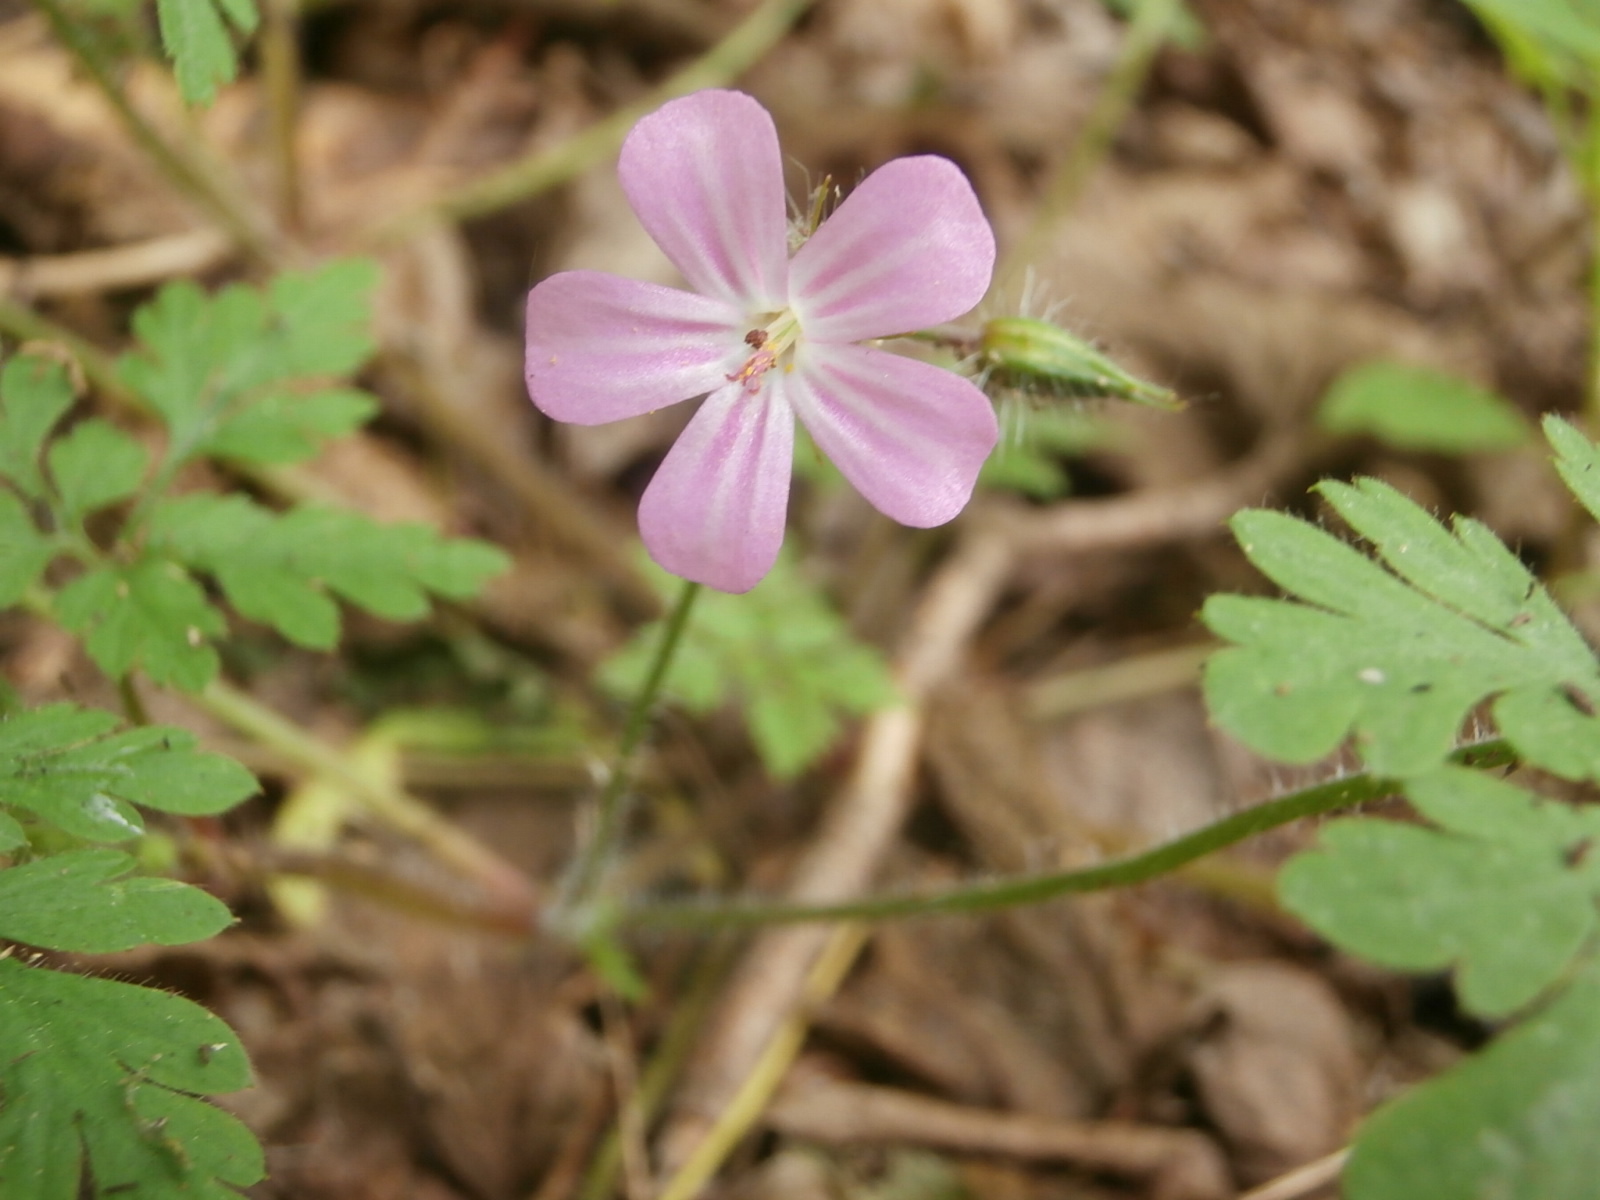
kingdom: Plantae
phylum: Tracheophyta
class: Magnoliopsida
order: Geraniales
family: Geraniaceae
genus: Geranium
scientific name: Geranium robertianum
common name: Herb-robert
